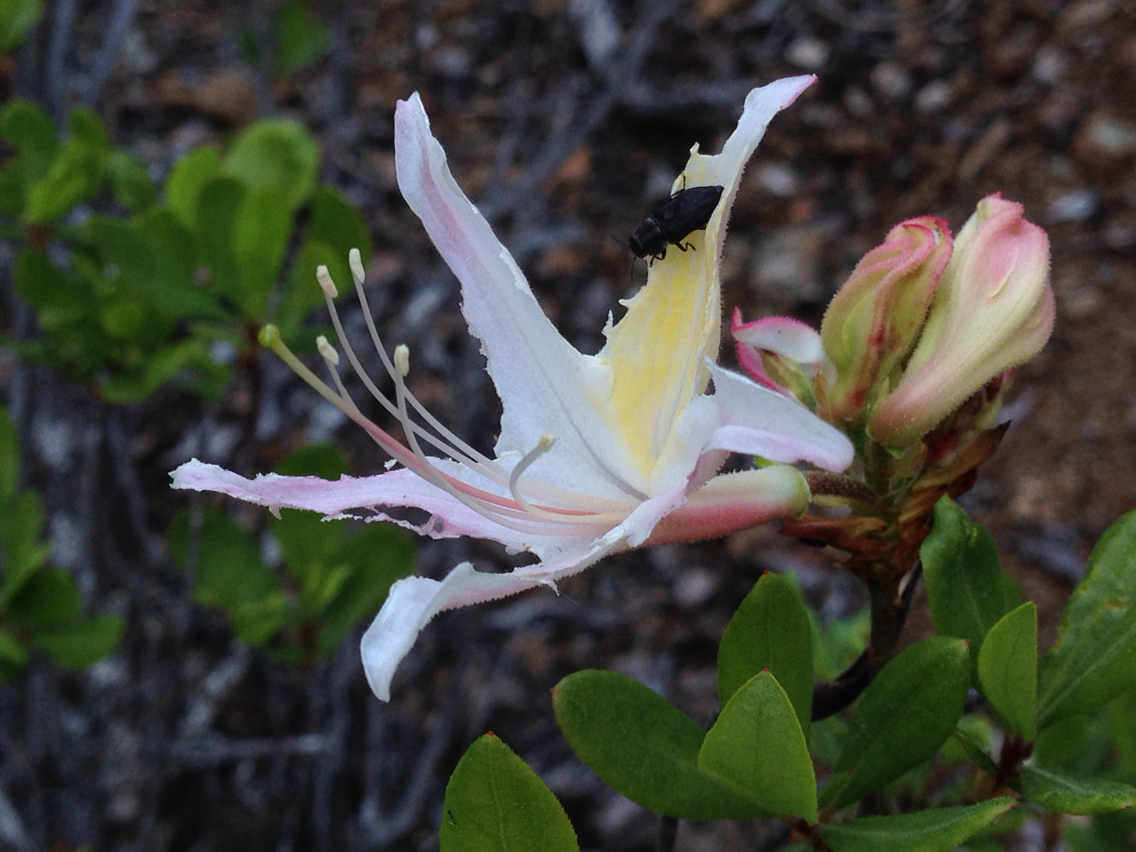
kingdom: Plantae
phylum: Tracheophyta
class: Magnoliopsida
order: Ericales
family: Ericaceae
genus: Rhododendron
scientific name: Rhododendron occidentale
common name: Western azalea
